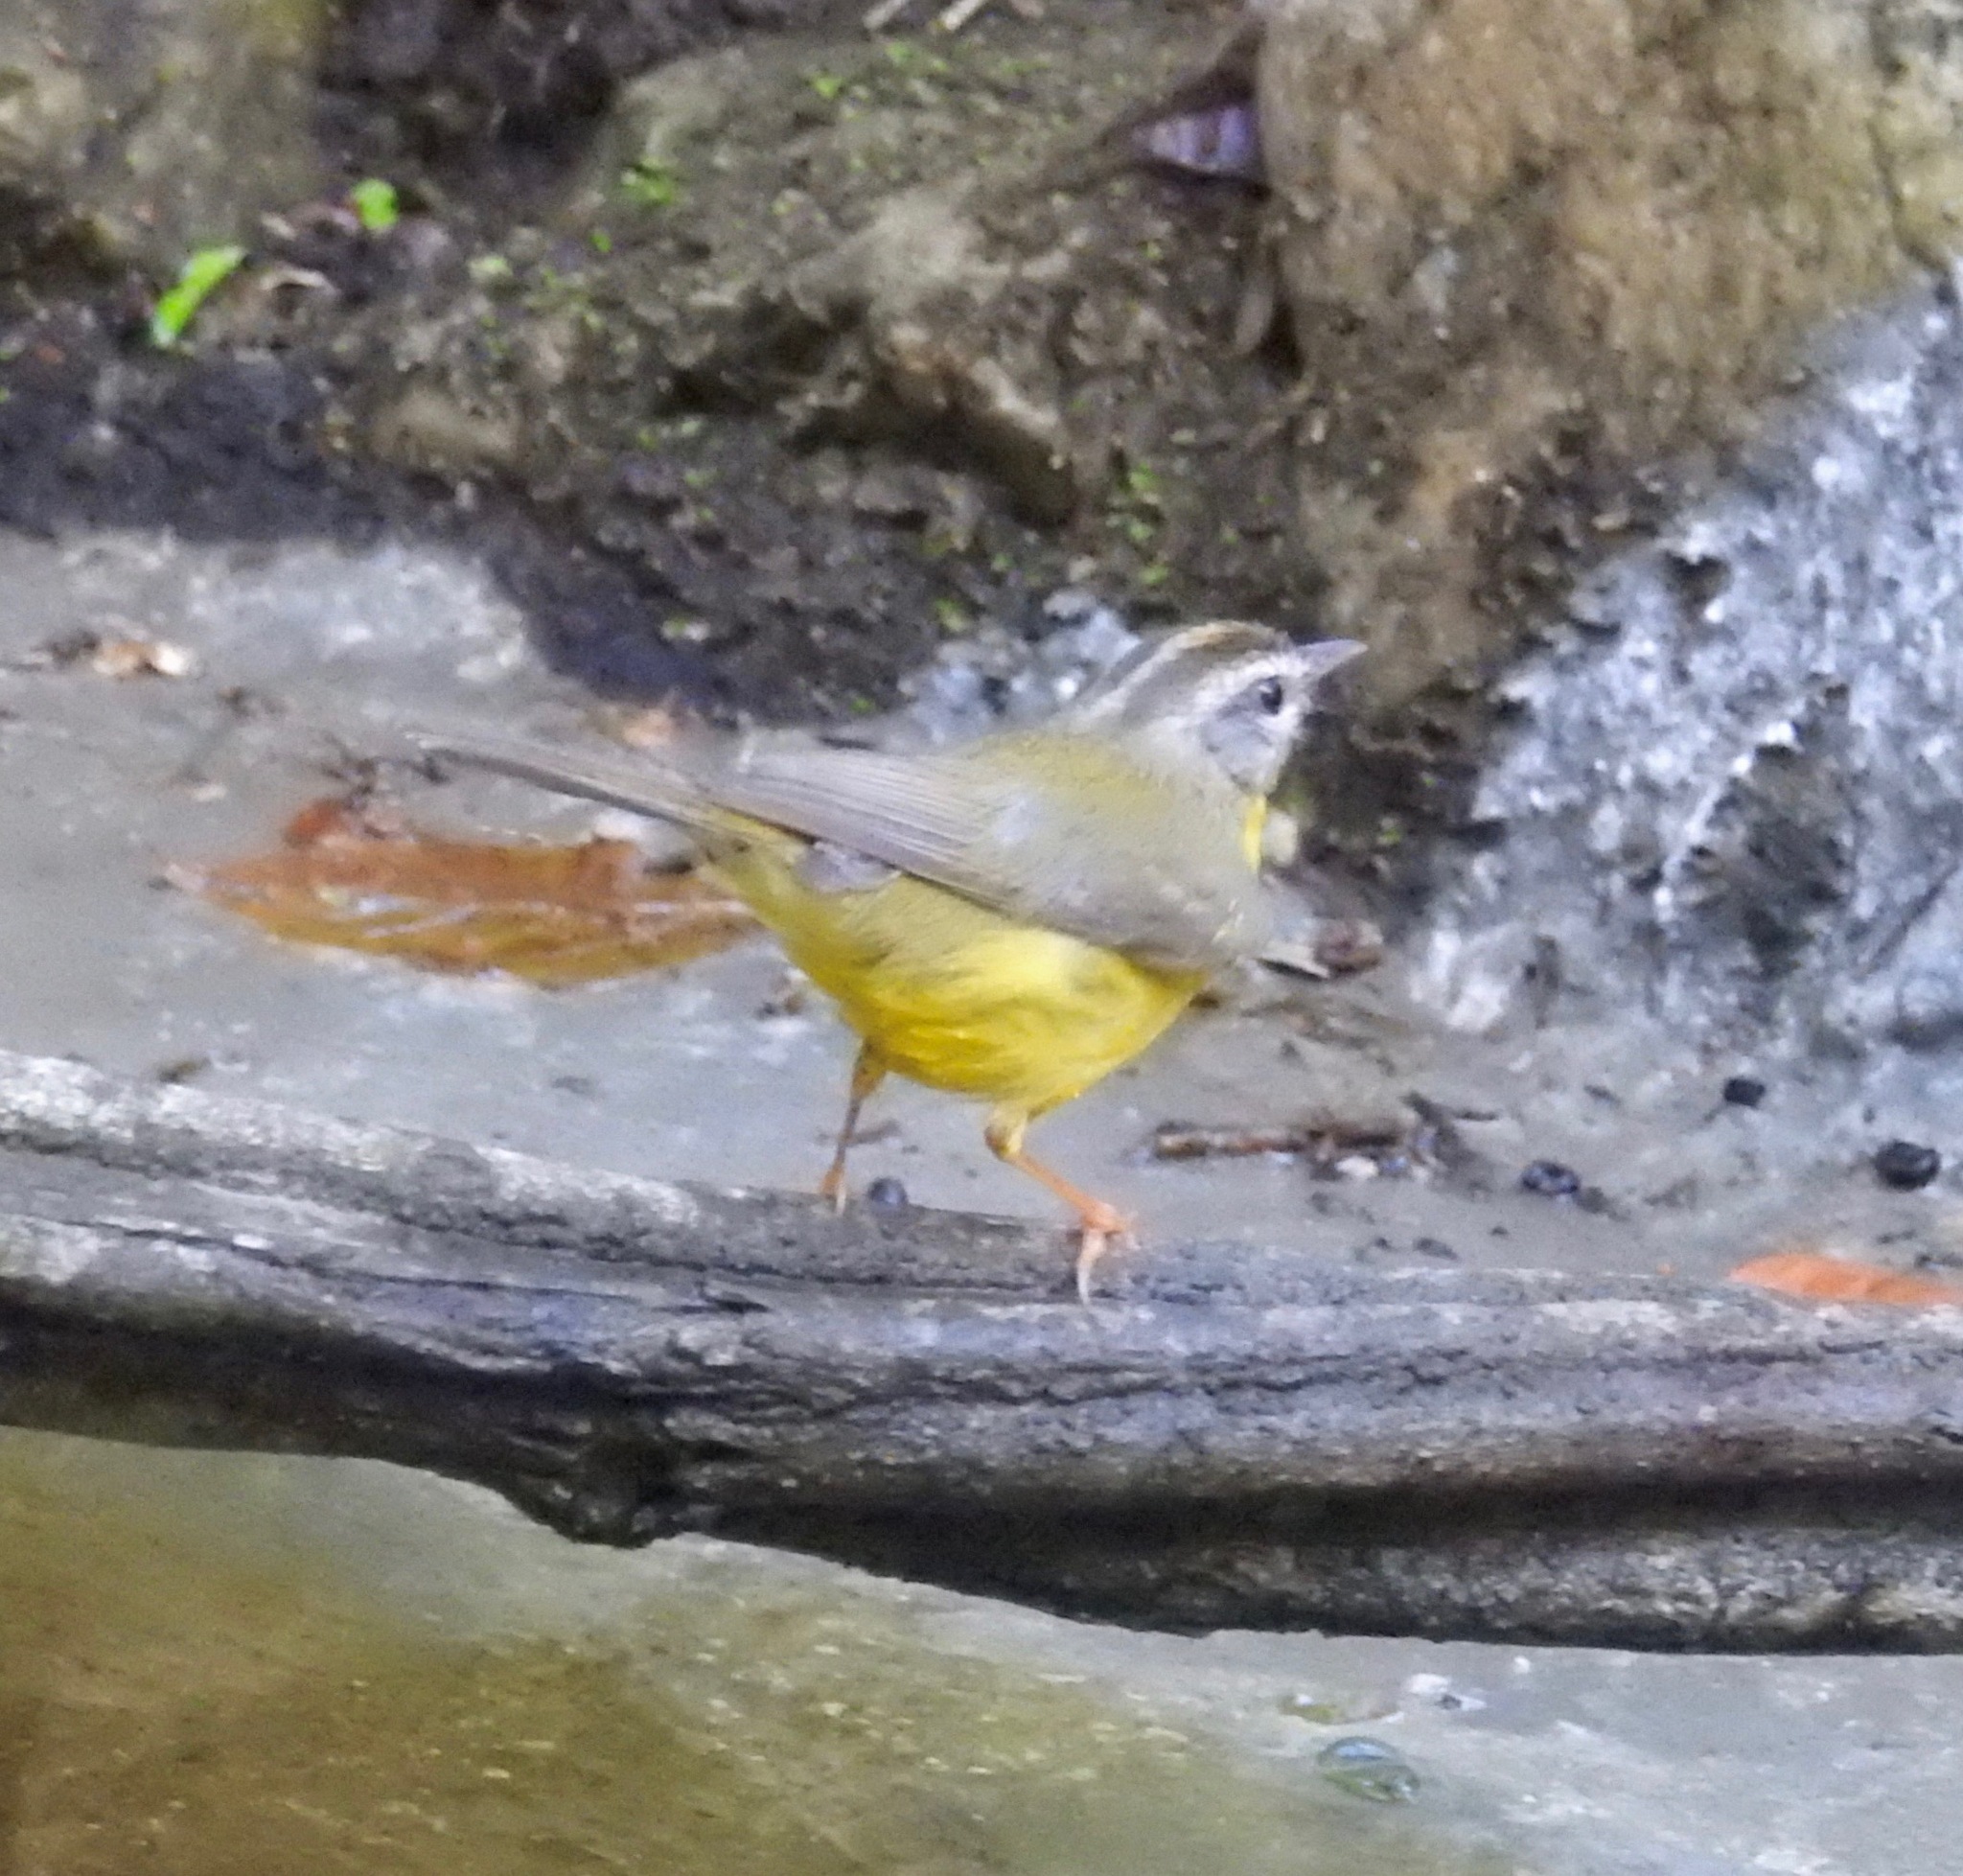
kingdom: Animalia
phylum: Chordata
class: Aves
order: Passeriformes
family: Parulidae
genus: Basileuterus
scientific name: Basileuterus culicivorus
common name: Golden-crowned warbler
